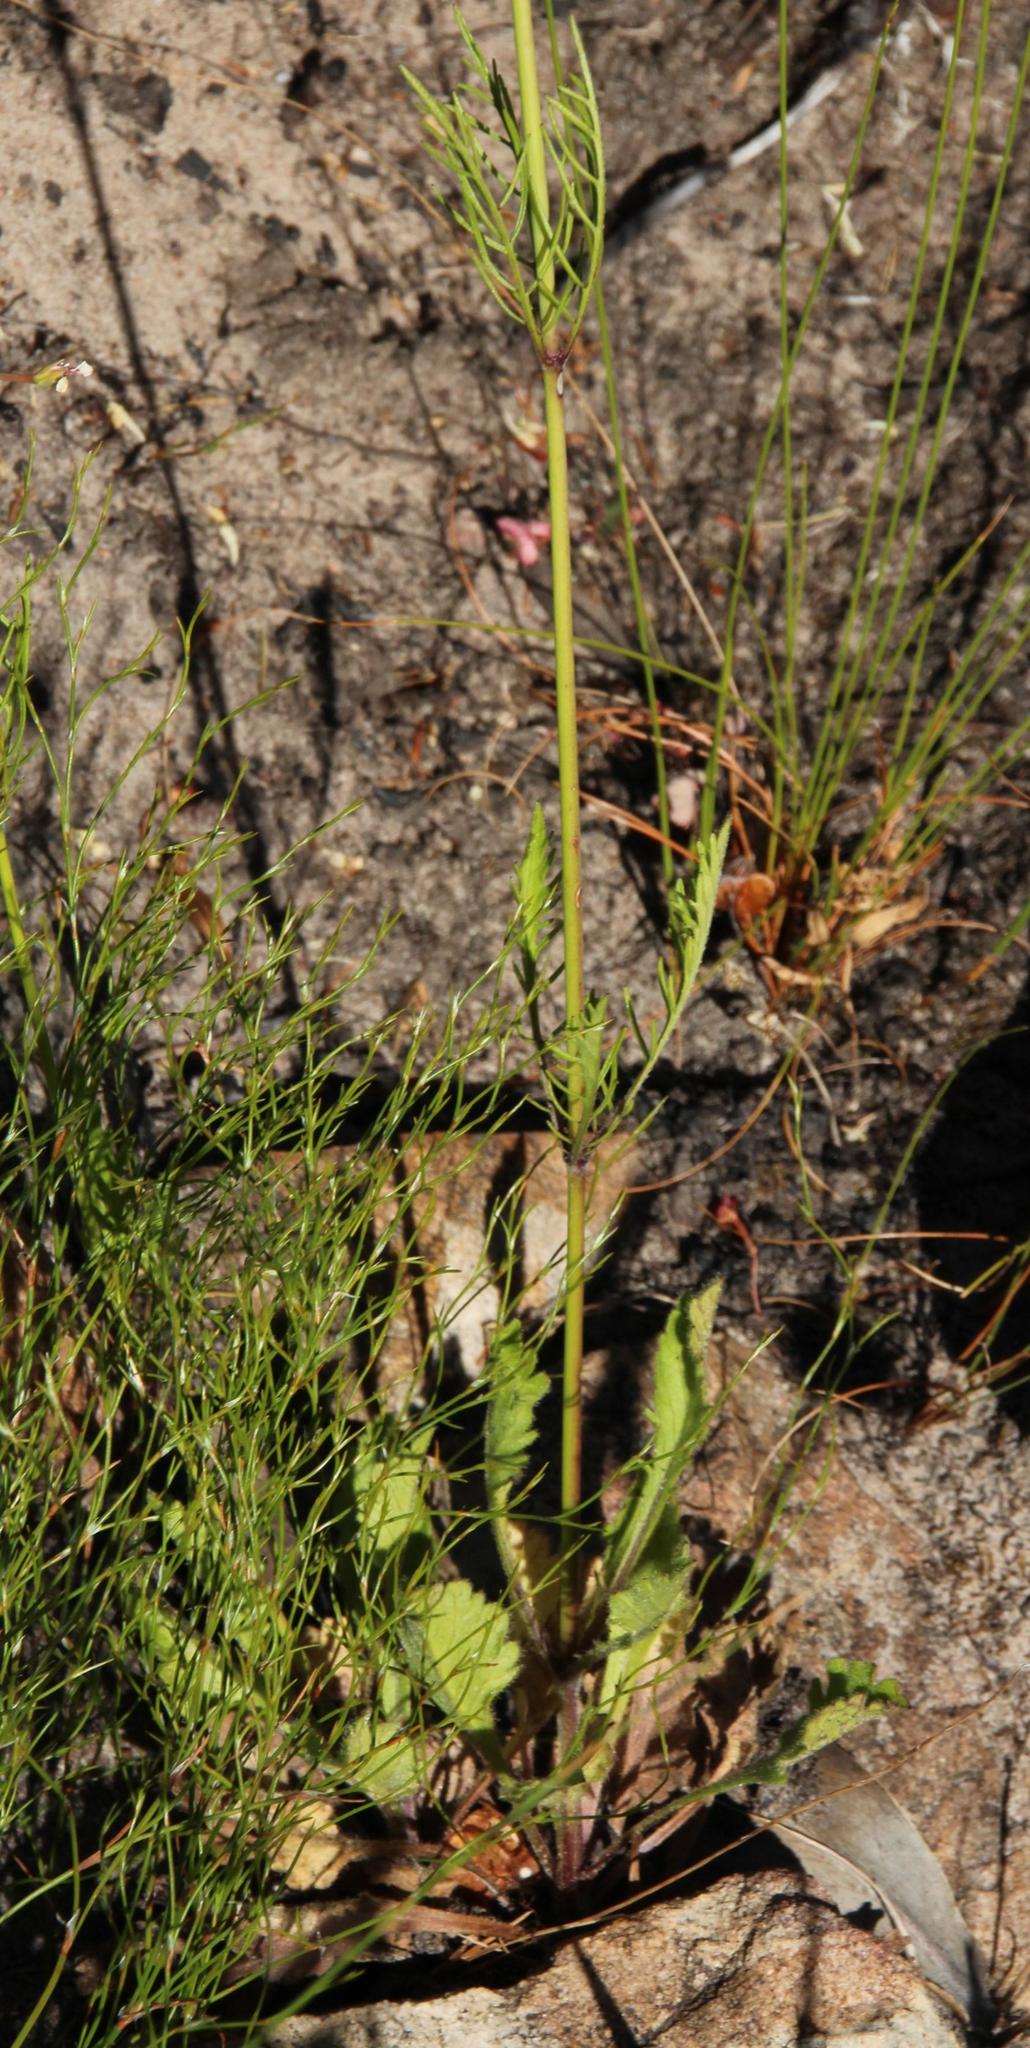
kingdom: Plantae
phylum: Tracheophyta
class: Magnoliopsida
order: Dipsacales
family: Caprifoliaceae
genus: Scabiosa
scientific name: Scabiosa columbaria
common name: Small scabious
